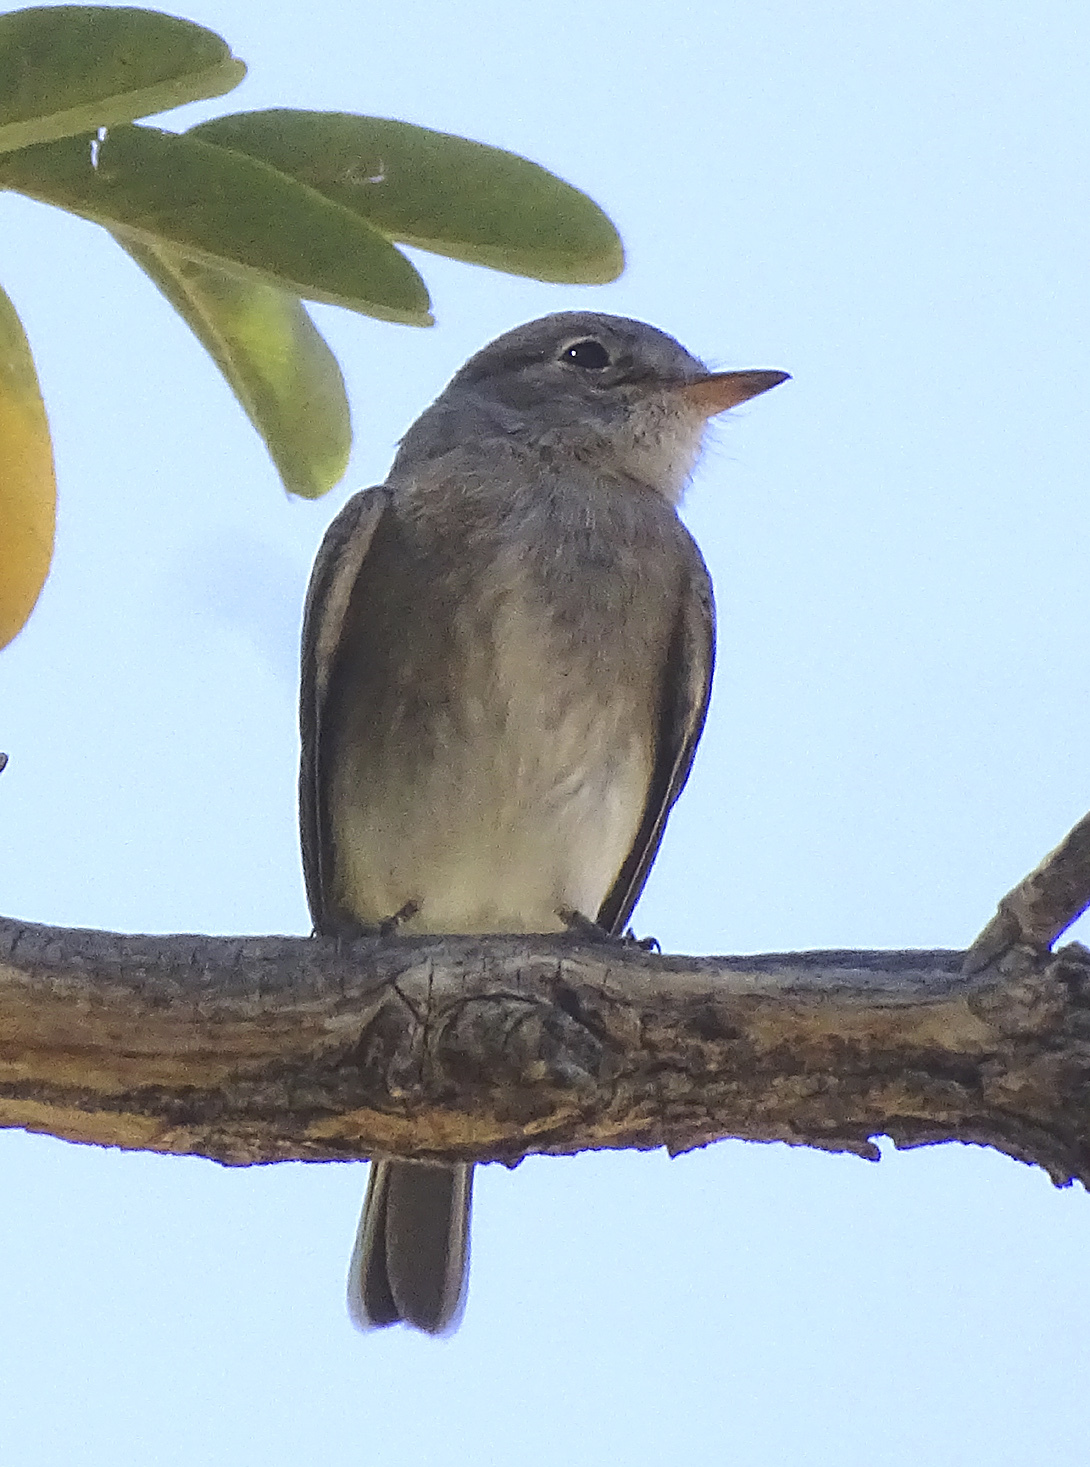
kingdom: Animalia
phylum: Chordata
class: Aves
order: Passeriformes
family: Tyrannidae
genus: Empidonax
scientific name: Empidonax wrightii
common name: Gray flycatcher
